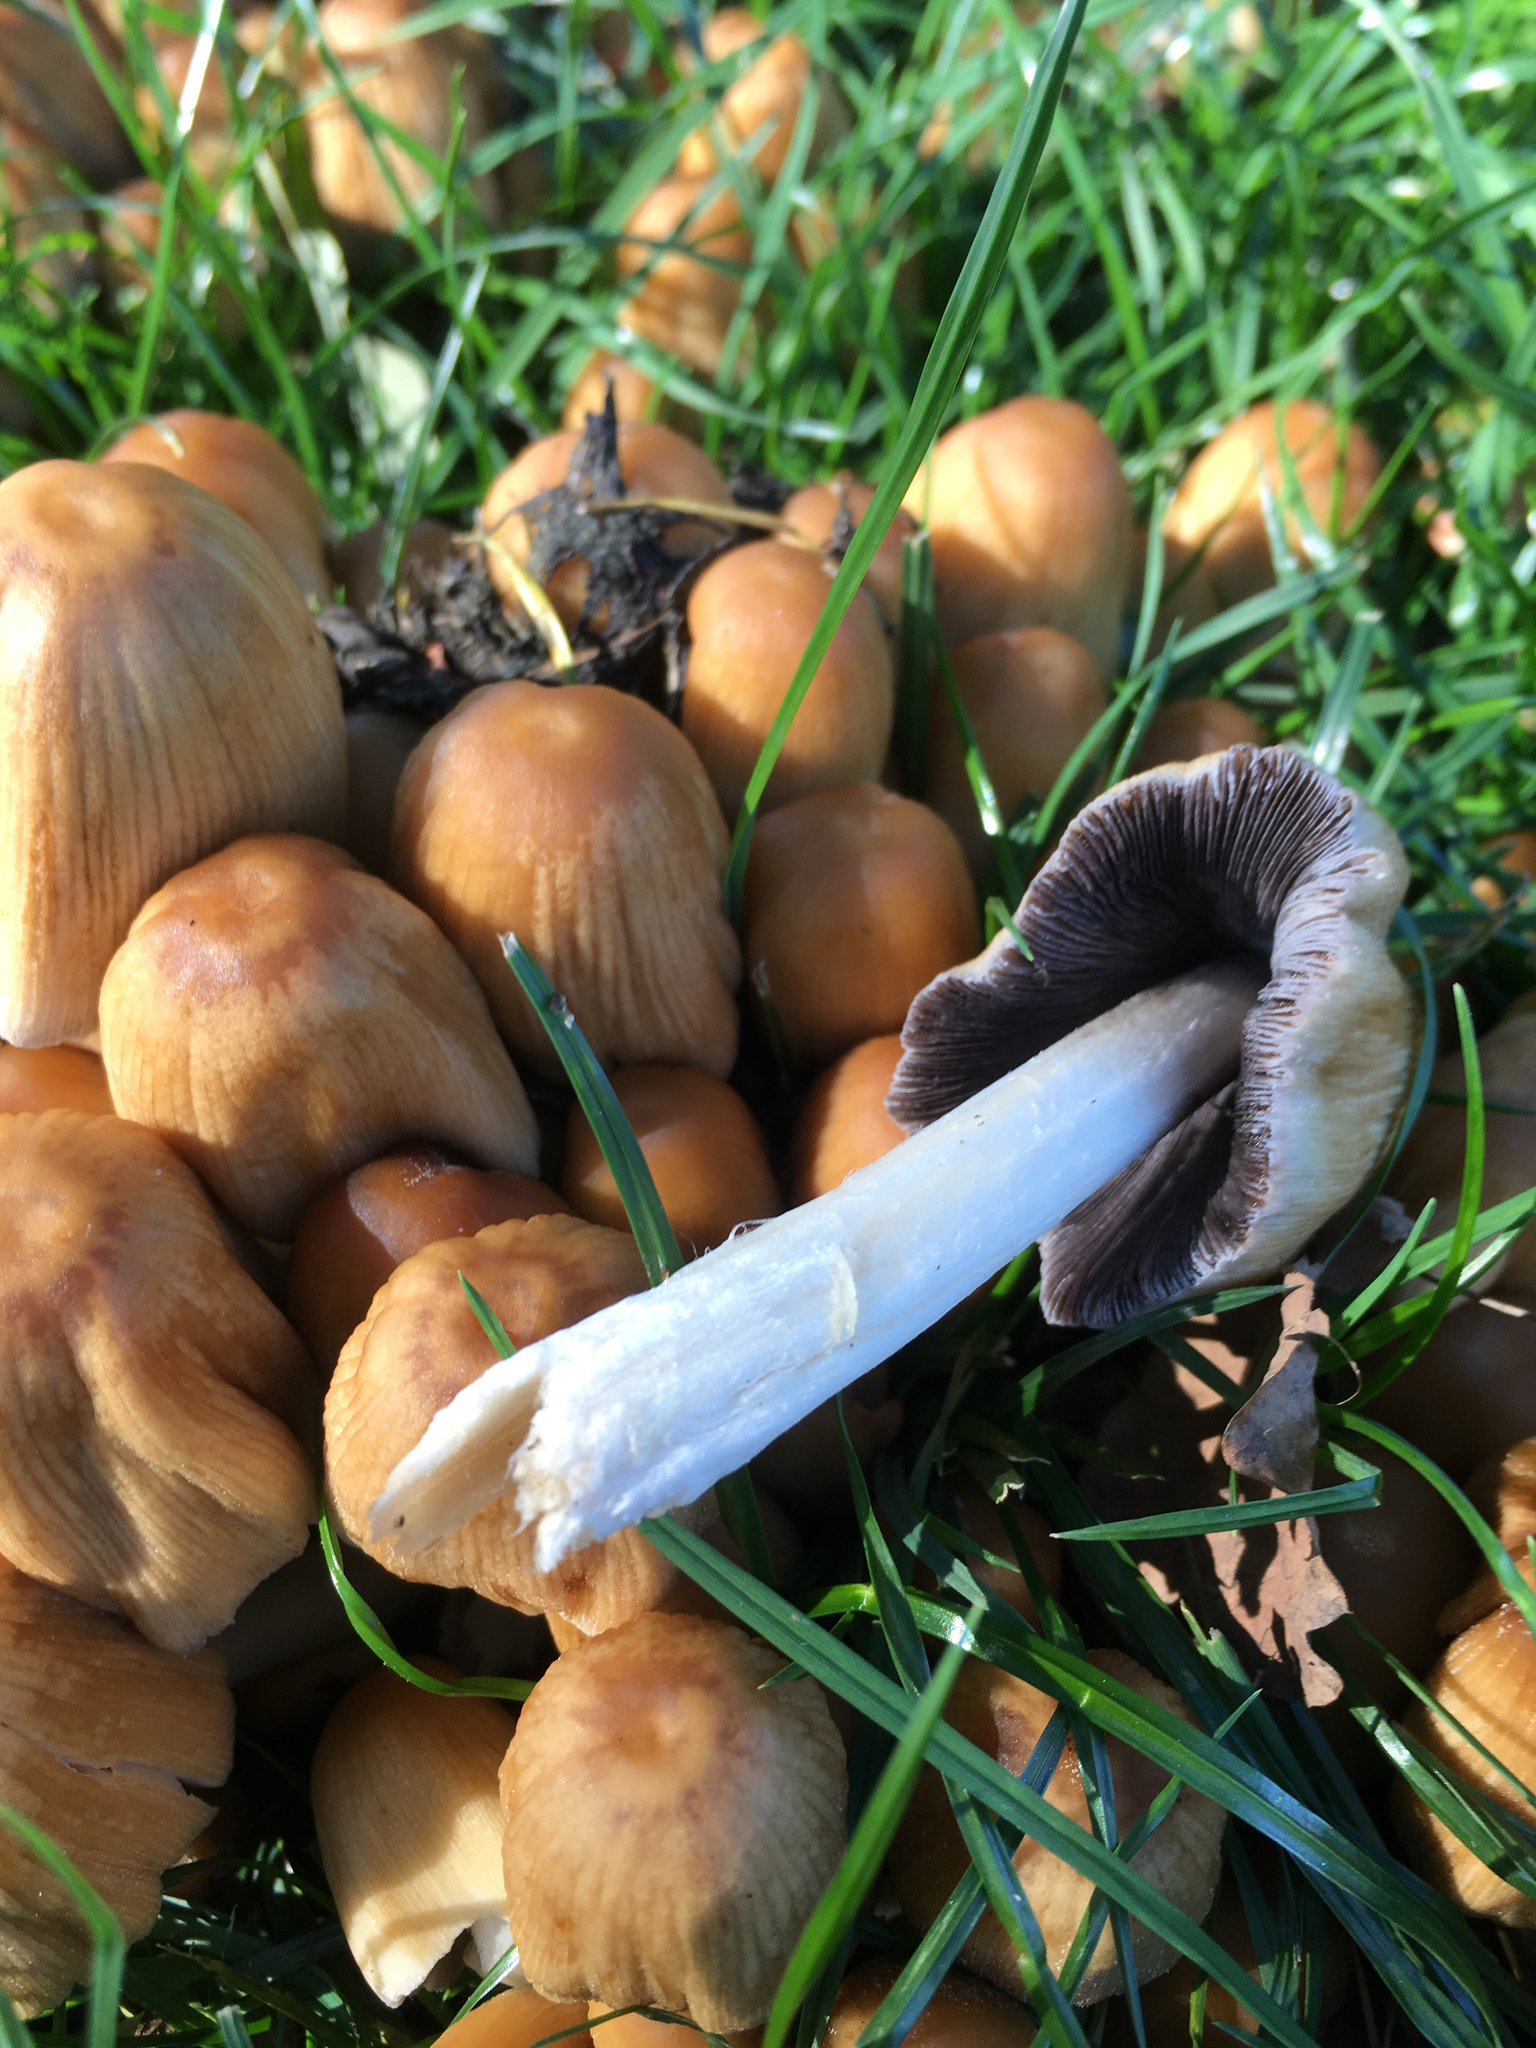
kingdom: Fungi
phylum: Basidiomycota
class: Agaricomycetes
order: Agaricales
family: Psathyrellaceae
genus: Coprinellus
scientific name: Coprinellus micaceus
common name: Glistening ink-cap
